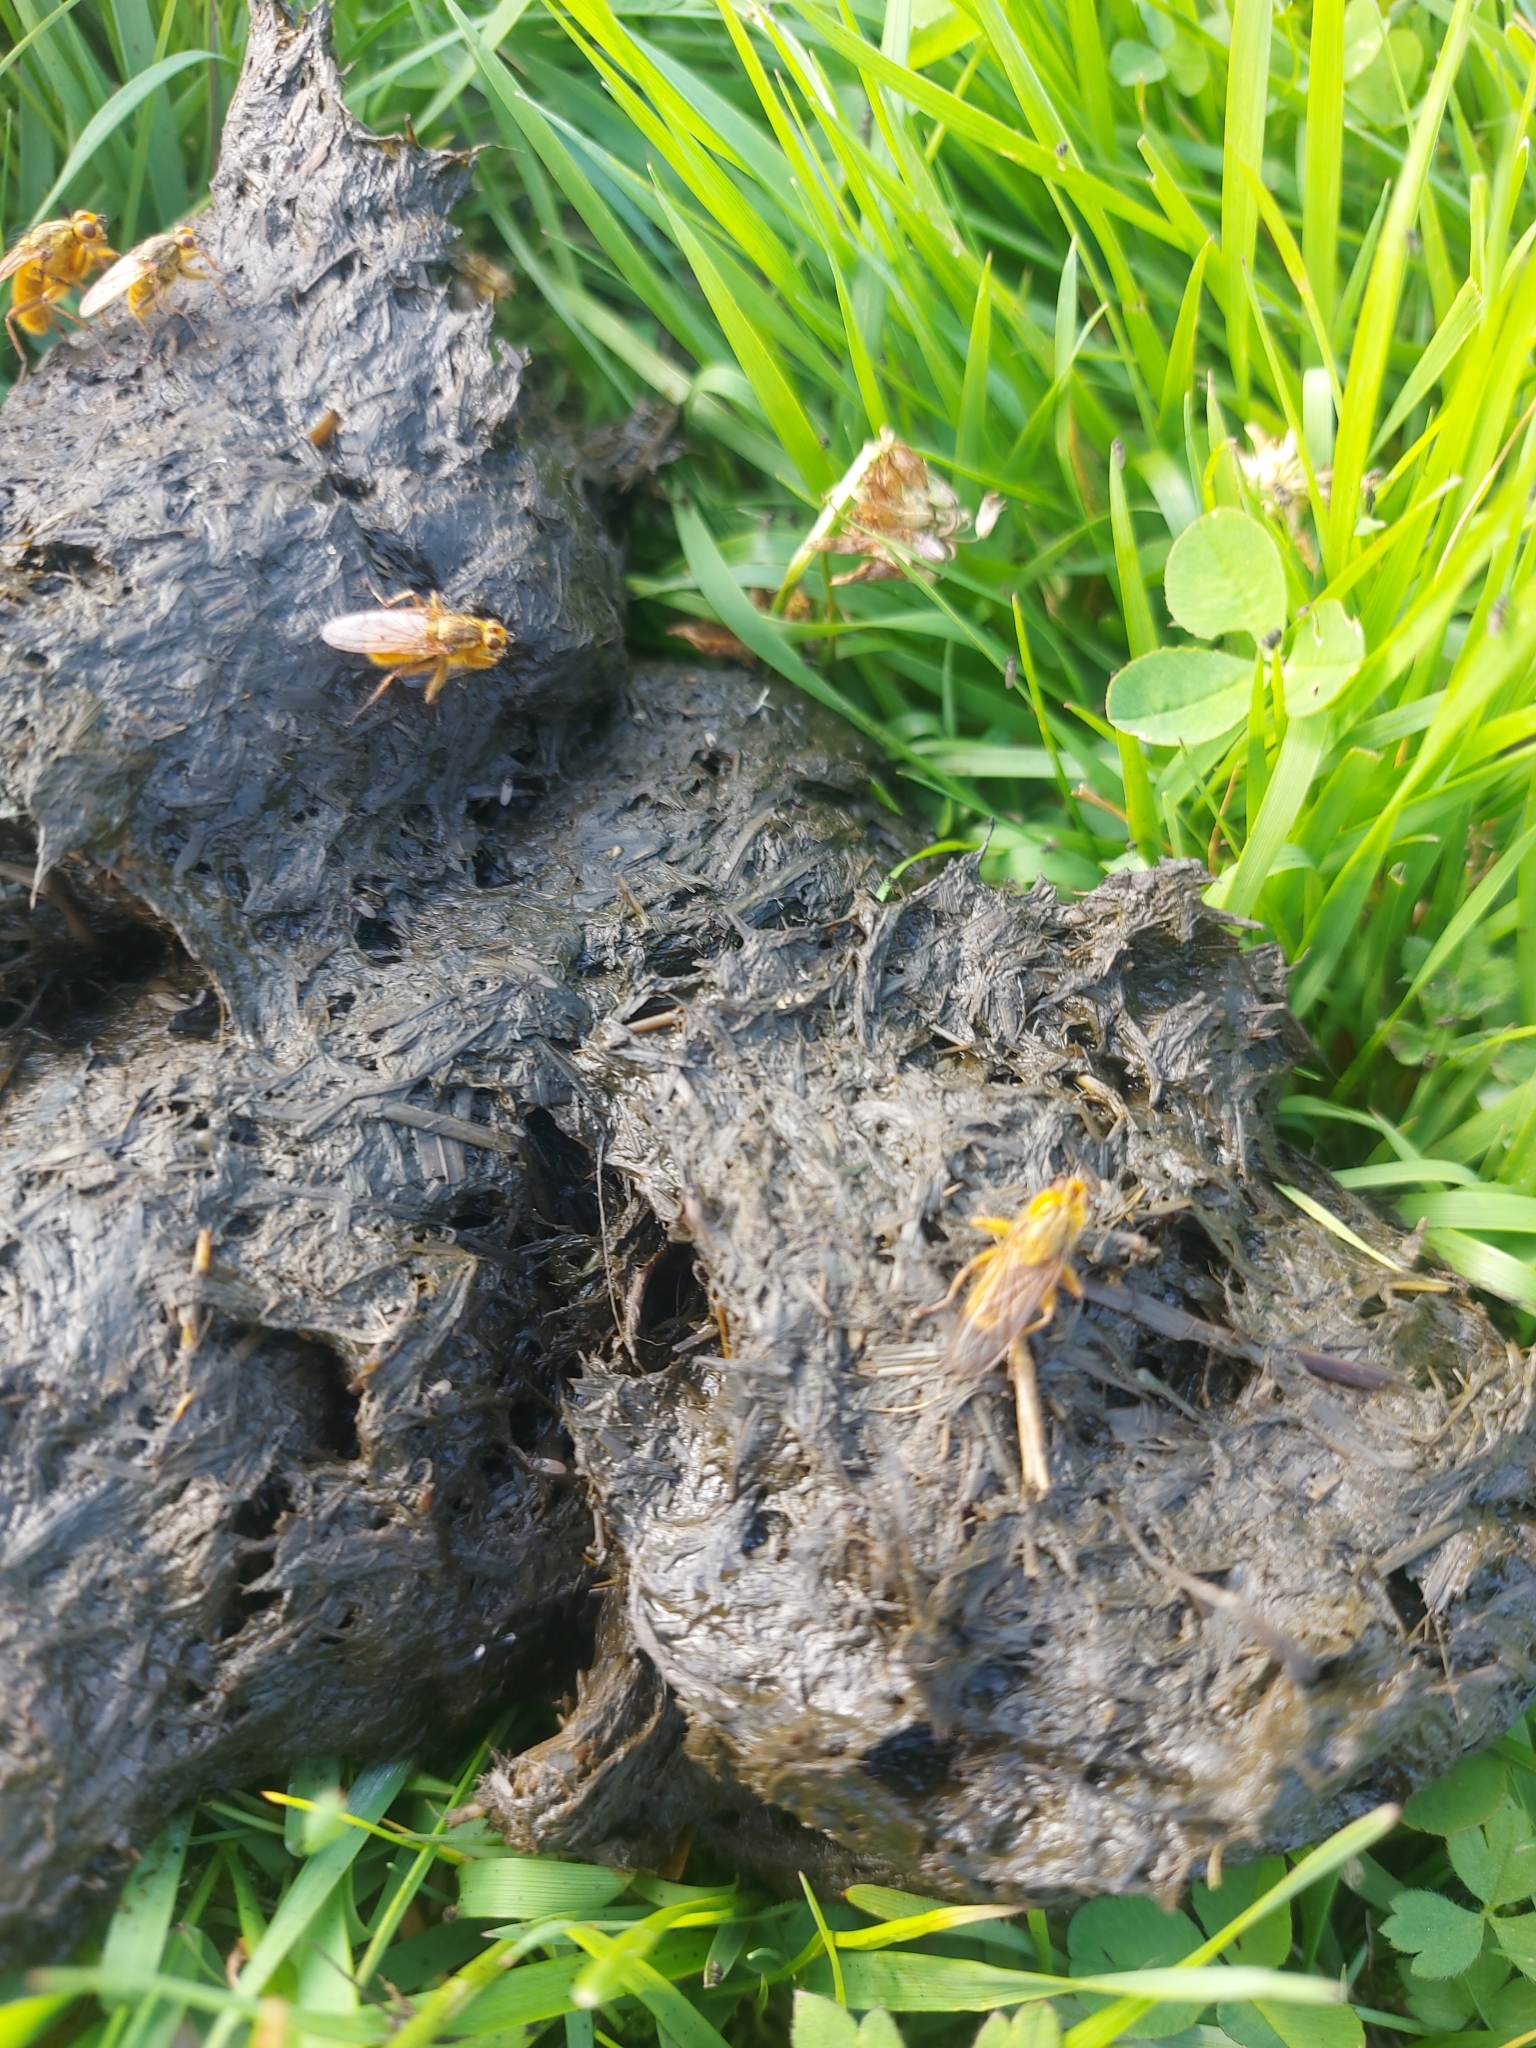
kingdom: Animalia
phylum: Arthropoda
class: Insecta
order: Diptera
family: Scathophagidae
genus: Scathophaga
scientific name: Scathophaga stercoraria
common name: Yellow dung fly
